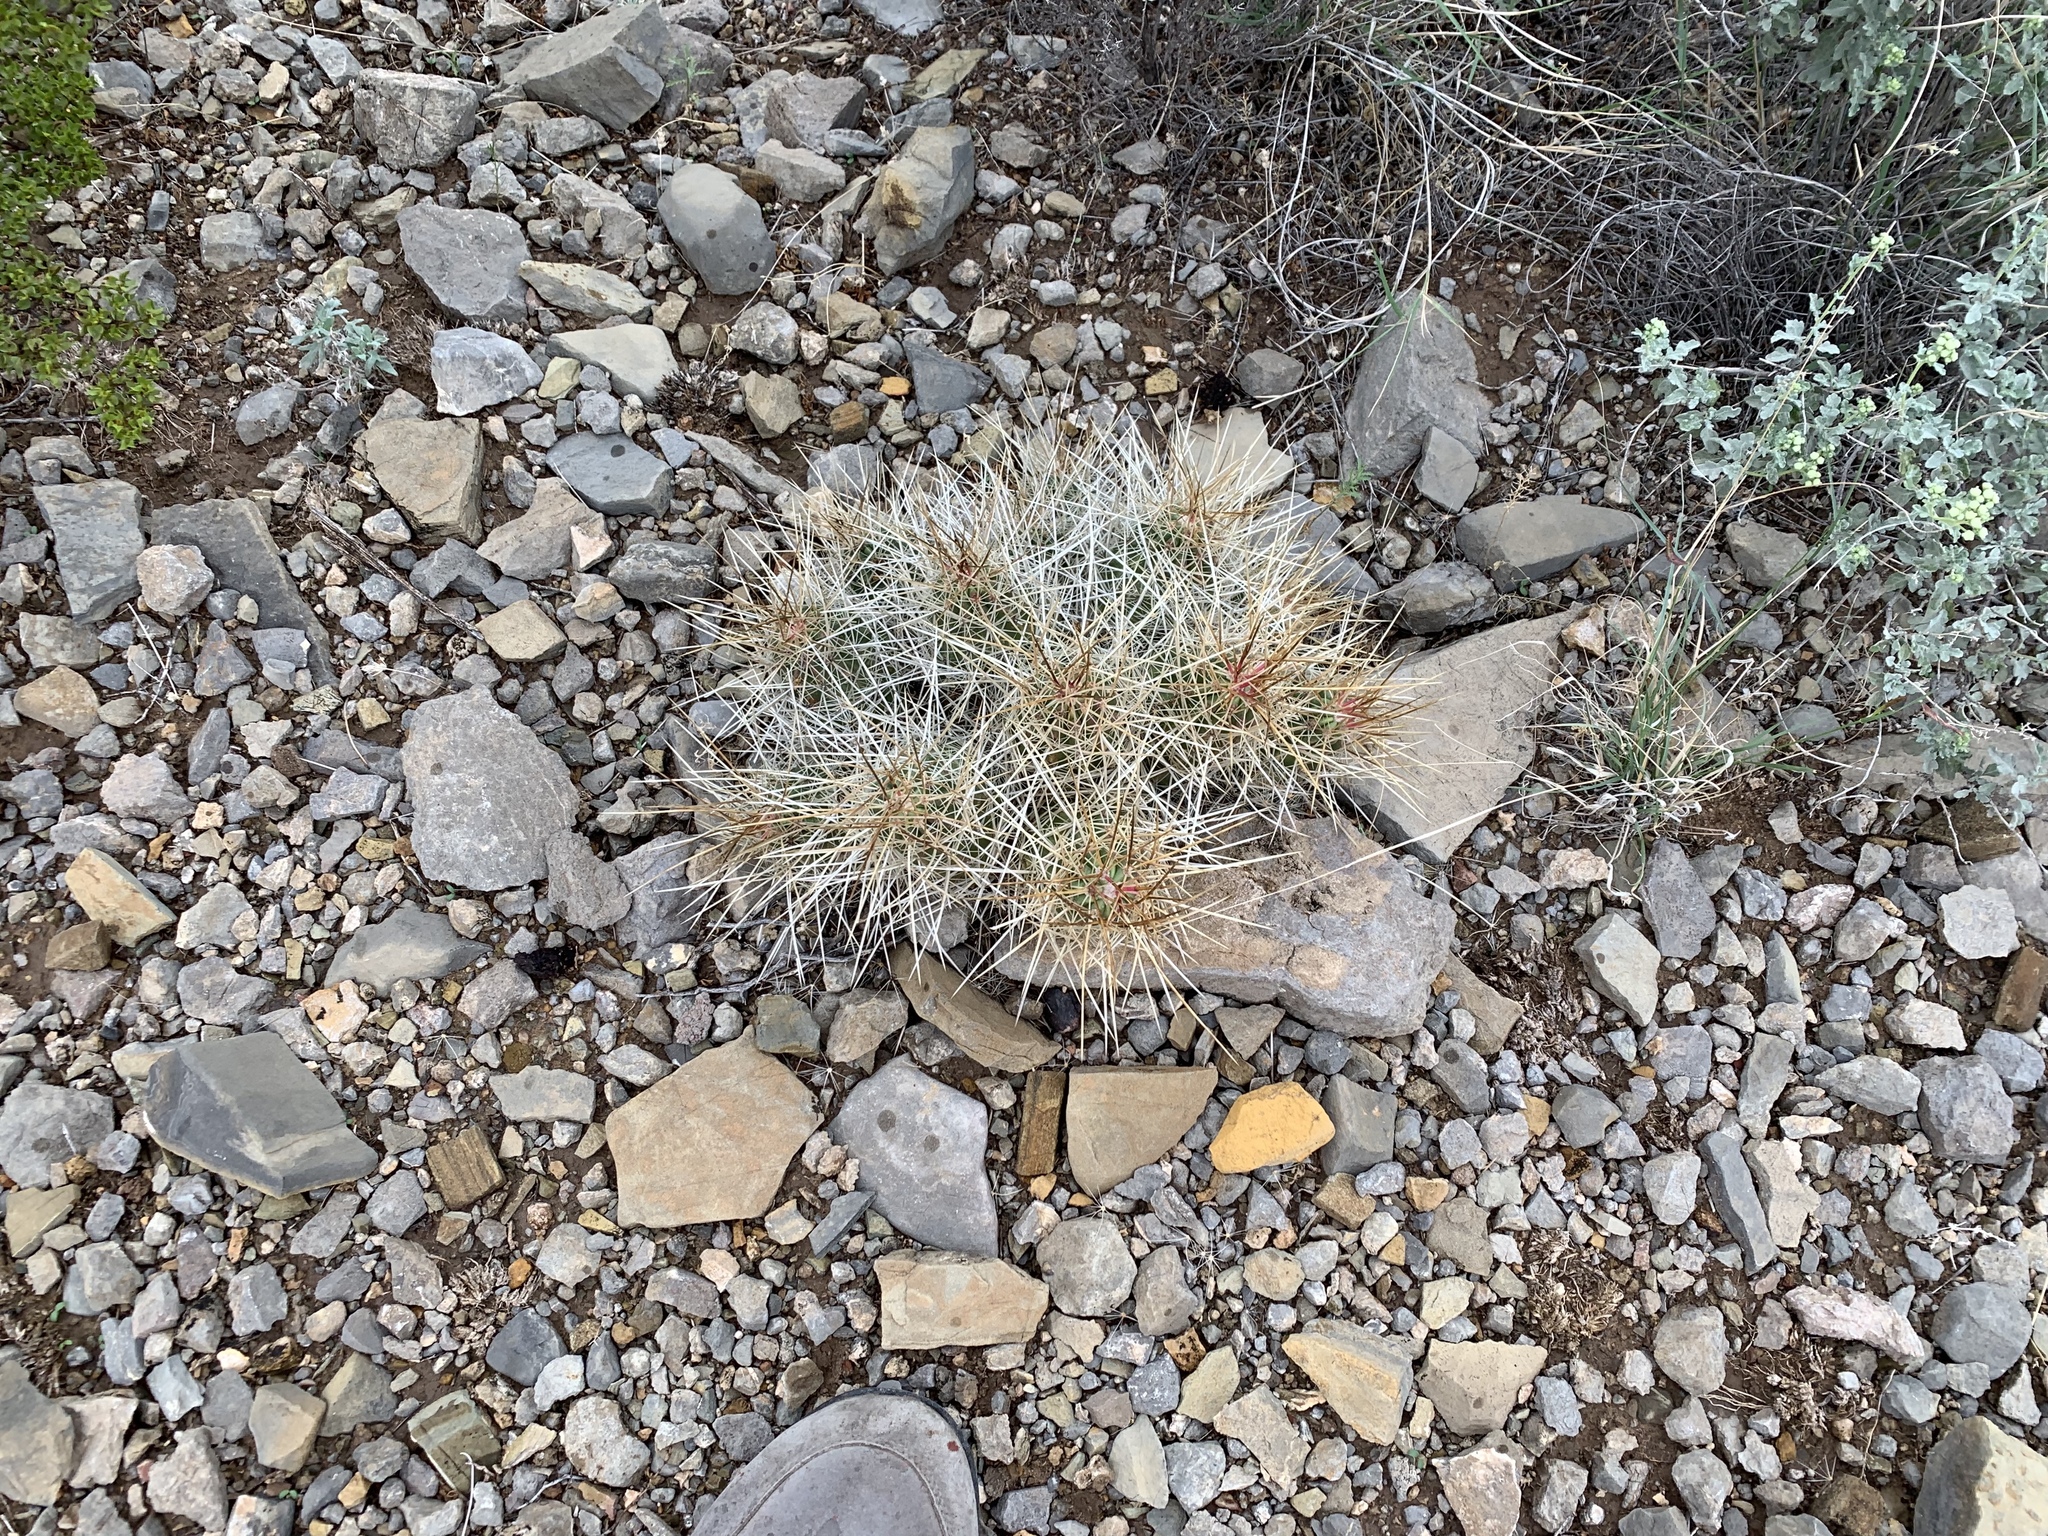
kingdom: Plantae
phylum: Tracheophyta
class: Magnoliopsida
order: Caryophyllales
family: Cactaceae
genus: Echinocereus
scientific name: Echinocereus stramineus
